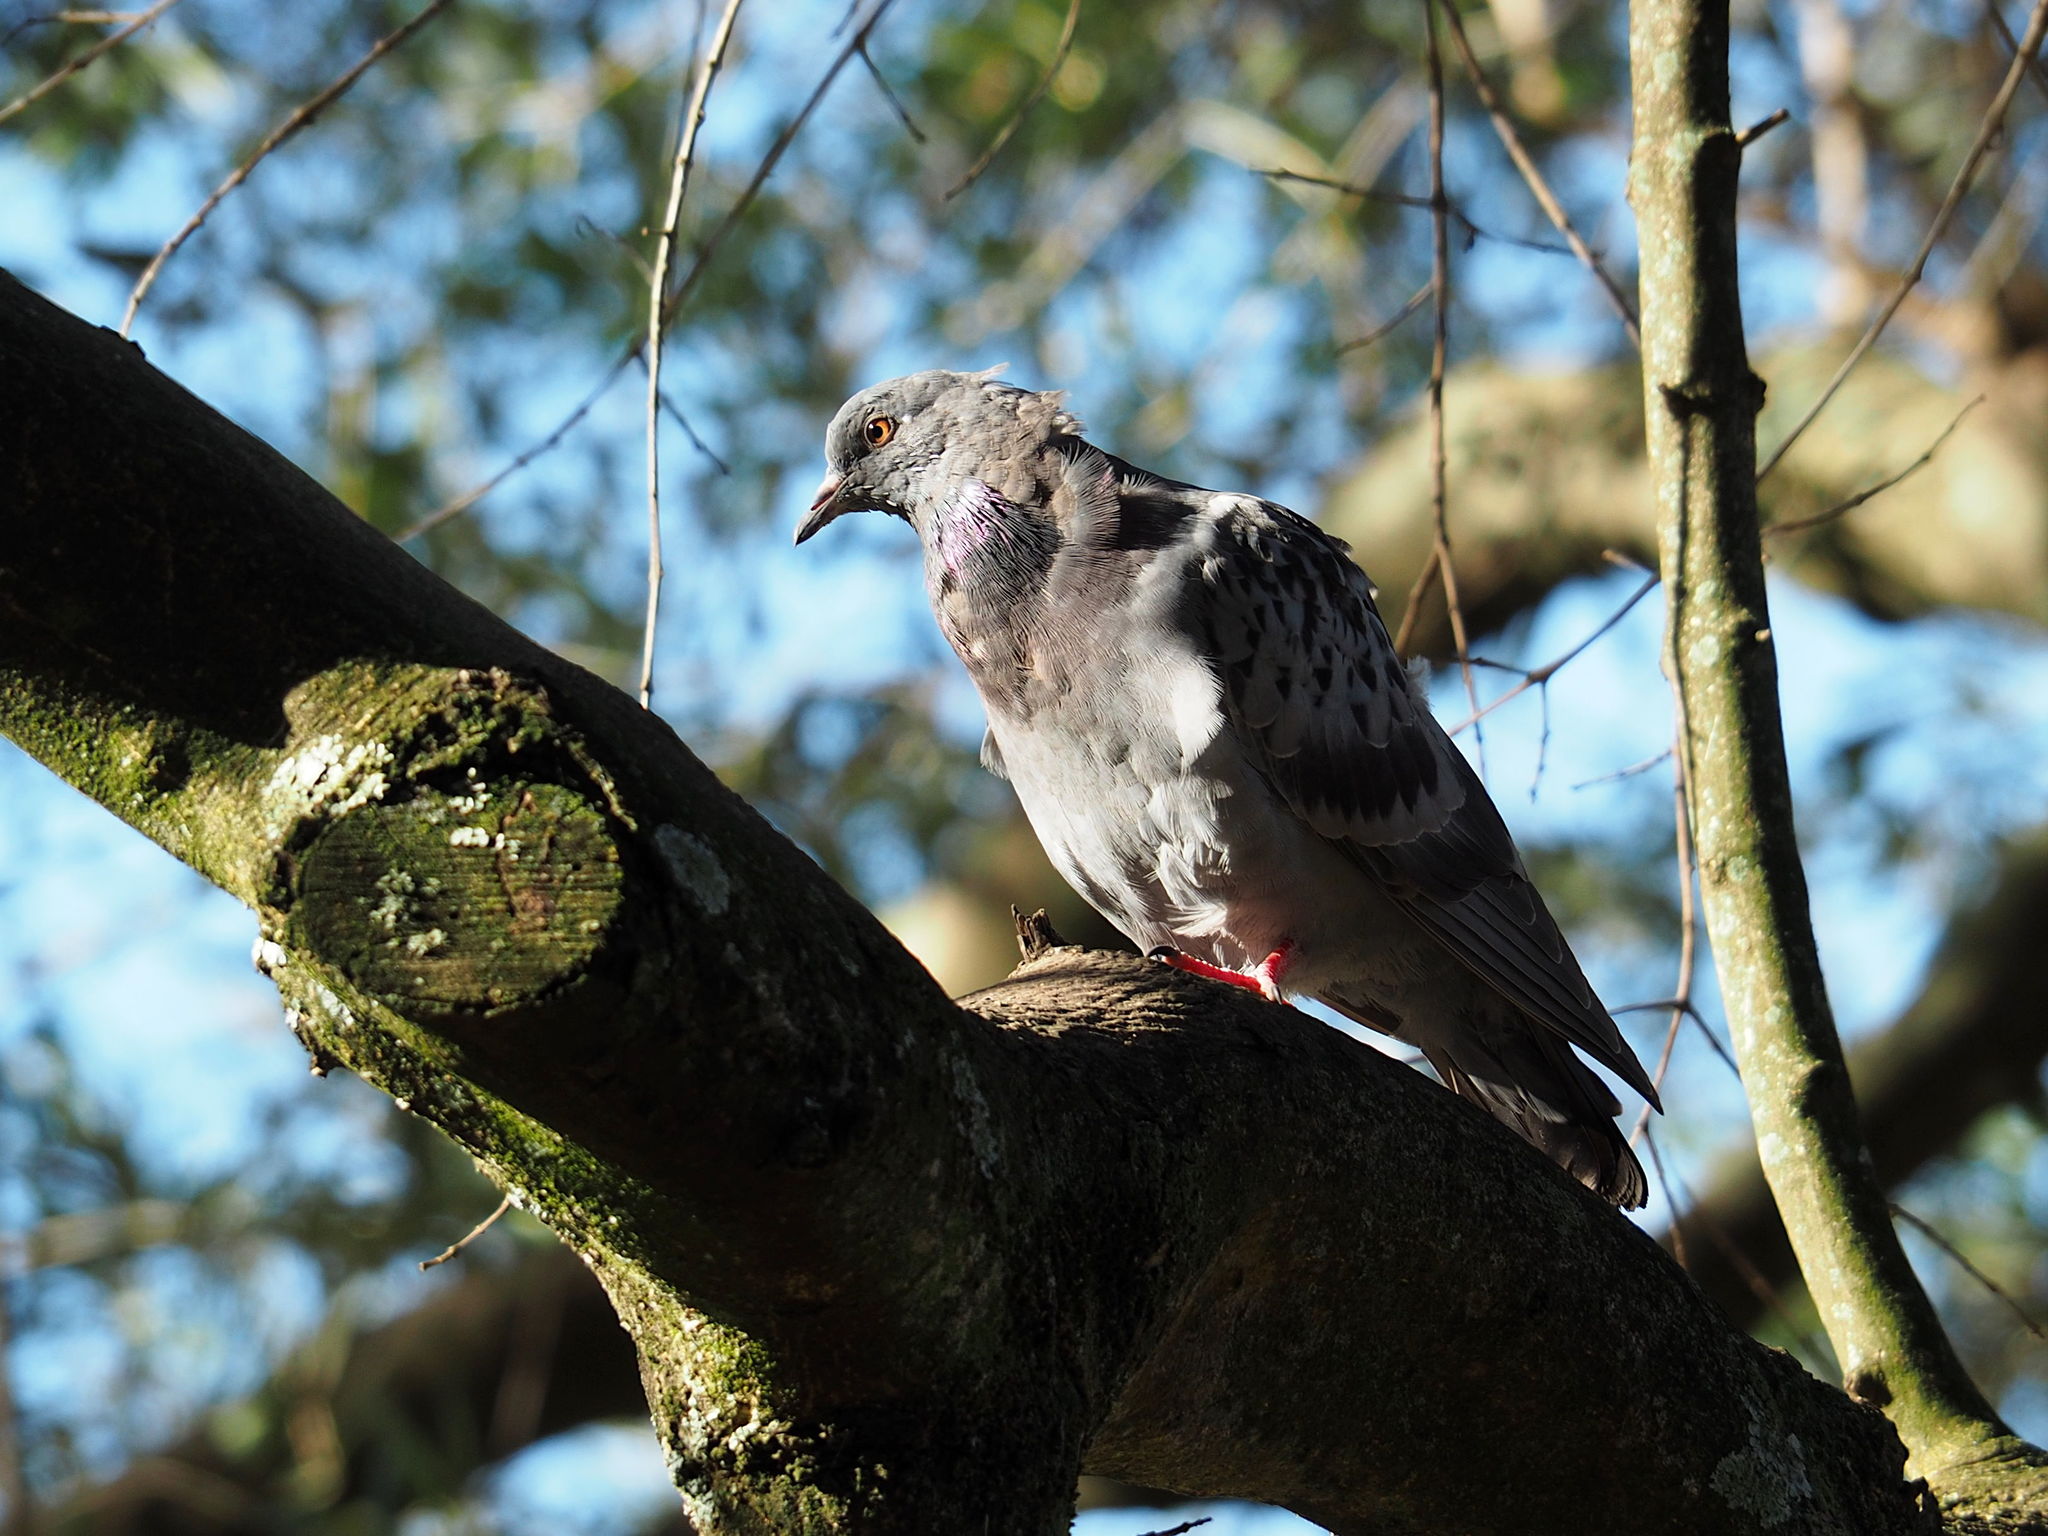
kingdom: Animalia
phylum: Chordata
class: Aves
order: Columbiformes
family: Columbidae
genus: Columba
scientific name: Columba livia
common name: Rock pigeon
